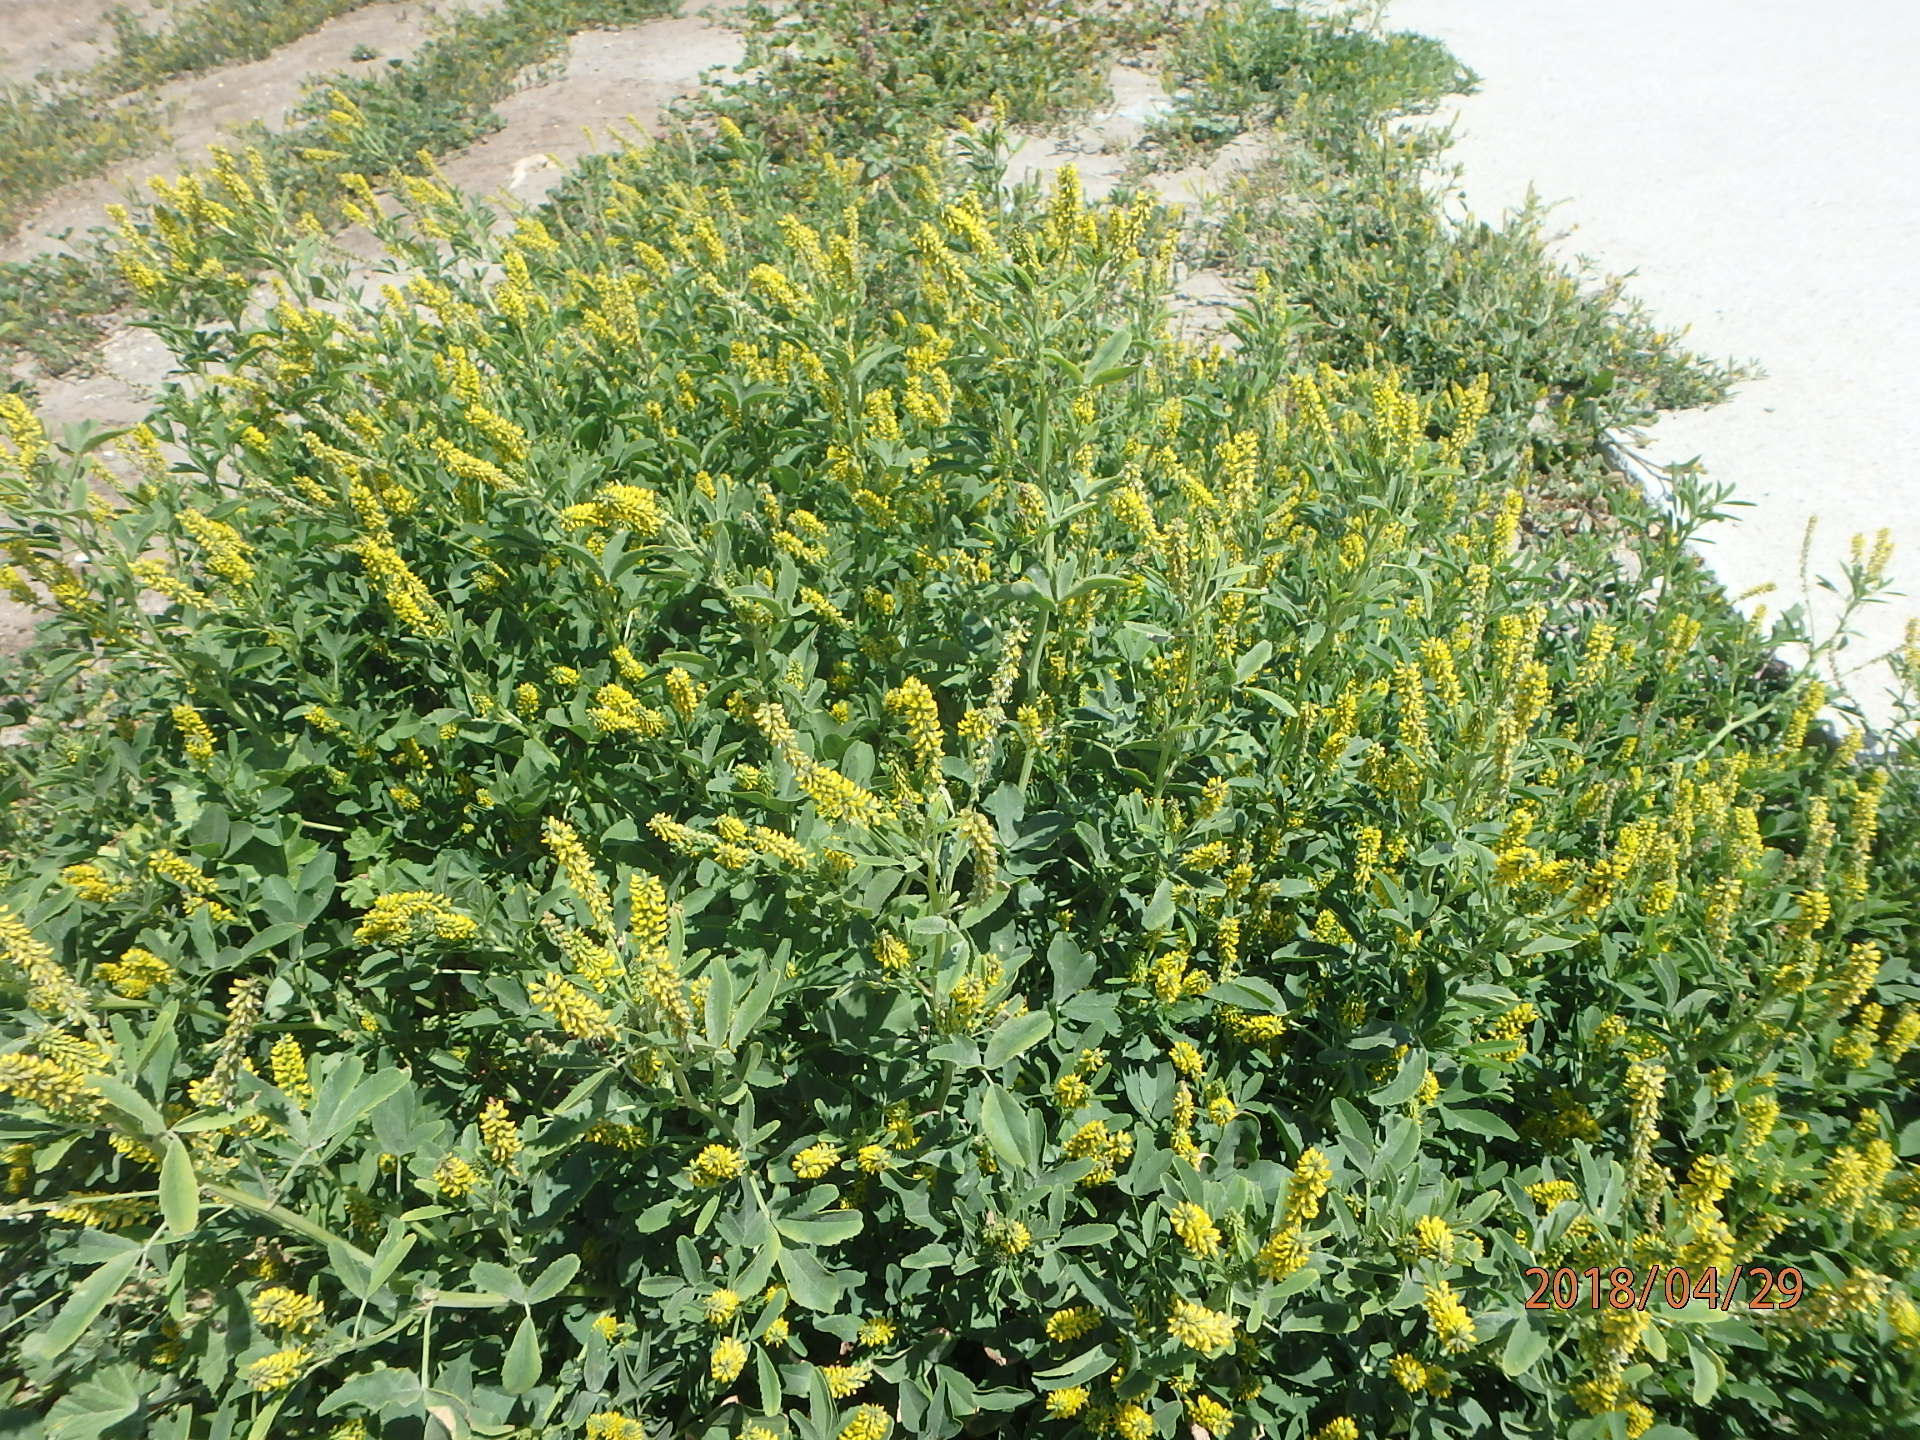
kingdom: Plantae
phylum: Tracheophyta
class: Magnoliopsida
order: Fabales
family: Fabaceae
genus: Melilotus
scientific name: Melilotus indicus
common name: Small melilot
